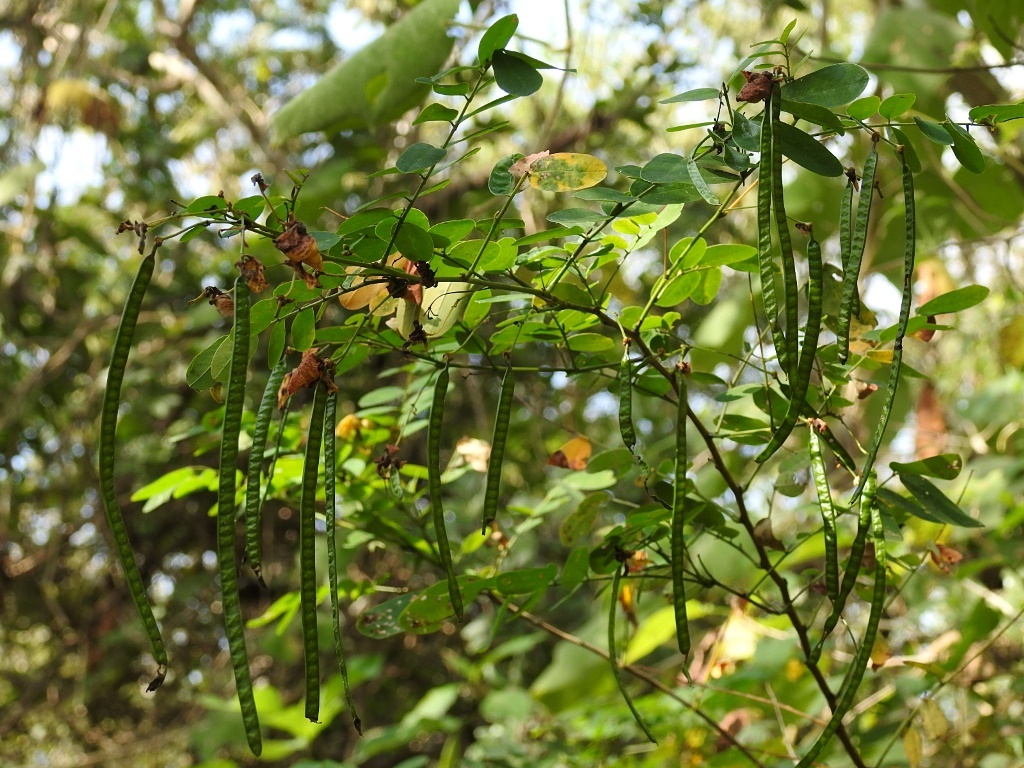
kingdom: Plantae
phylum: Tracheophyta
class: Magnoliopsida
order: Fabales
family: Fabaceae
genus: Senna
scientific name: Senna pallida
